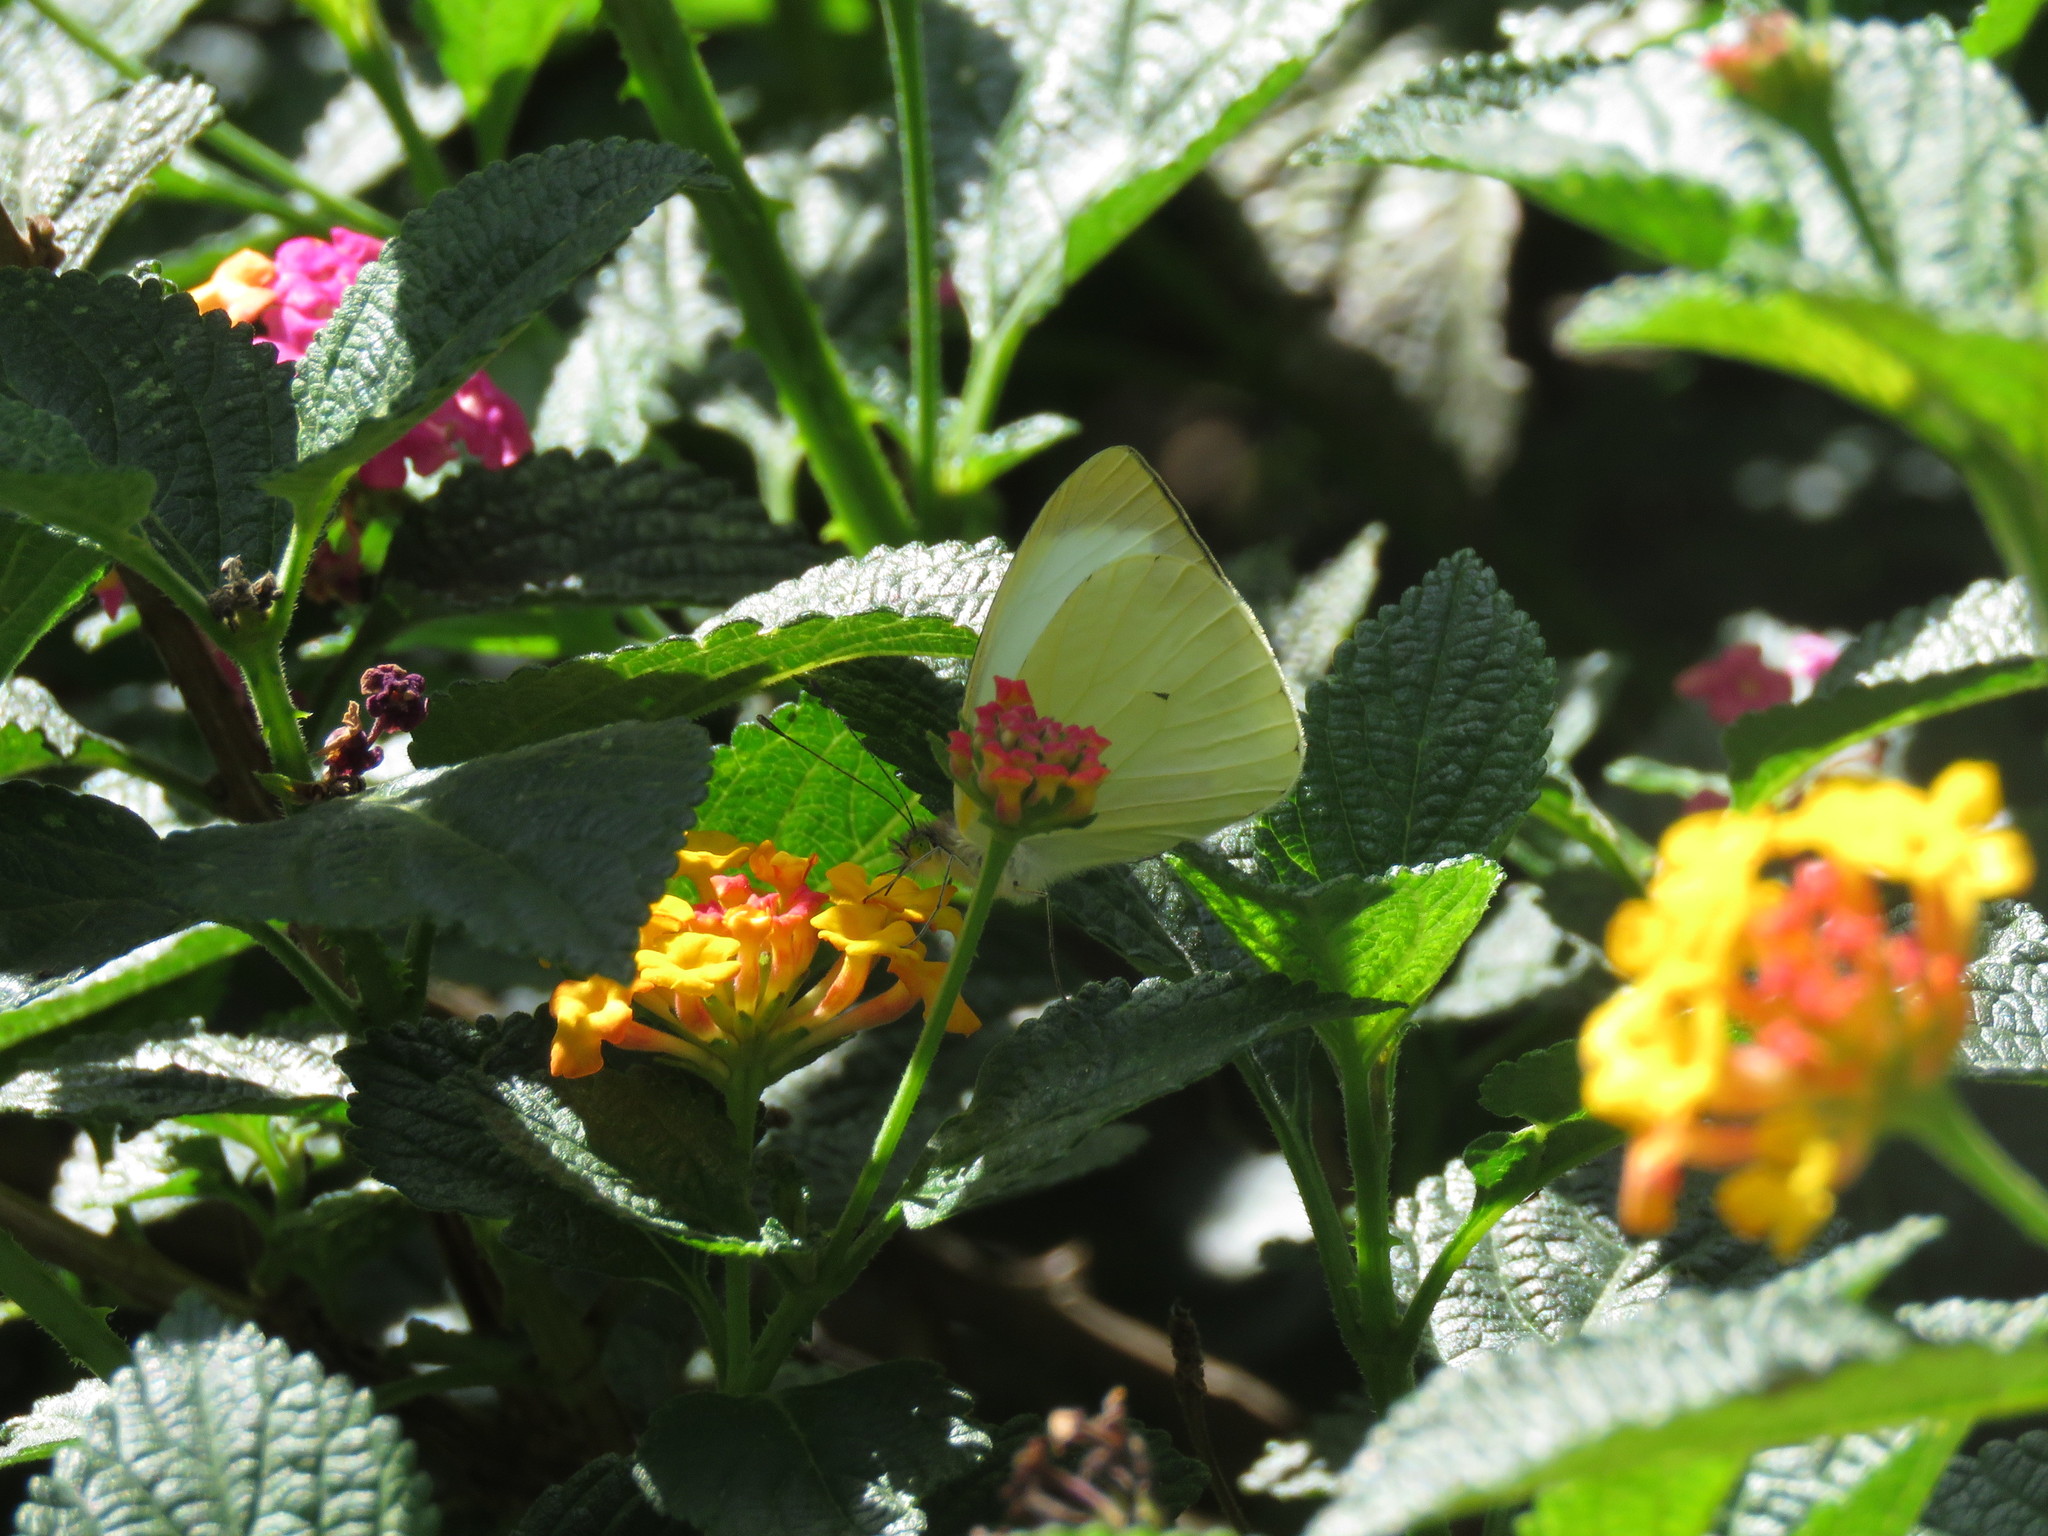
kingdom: Animalia
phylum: Arthropoda
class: Insecta
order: Lepidoptera
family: Pieridae
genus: Leptophobia
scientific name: Leptophobia aripa
